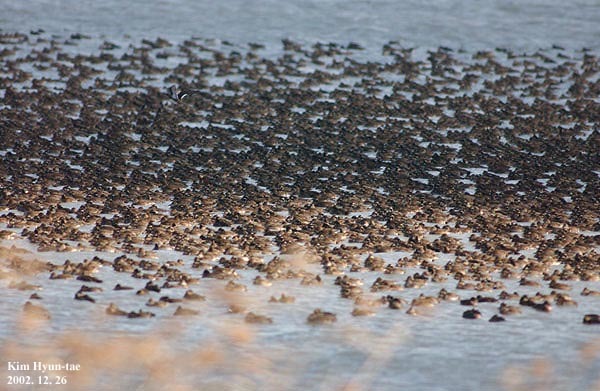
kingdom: Animalia
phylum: Chordata
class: Aves
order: Anseriformes
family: Anatidae
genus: Sibirionetta
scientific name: Sibirionetta formosa
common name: Baikal teal
